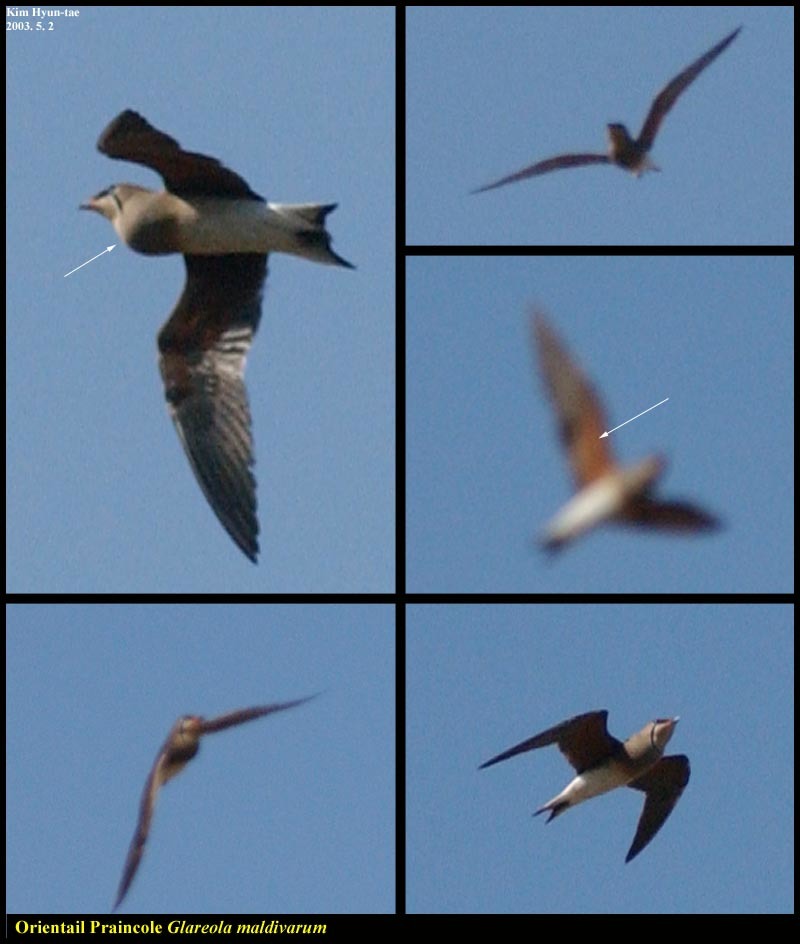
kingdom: Animalia
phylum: Chordata
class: Aves
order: Charadriiformes
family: Glareolidae
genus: Glareola
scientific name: Glareola maldivarum
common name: Oriental pratincole
